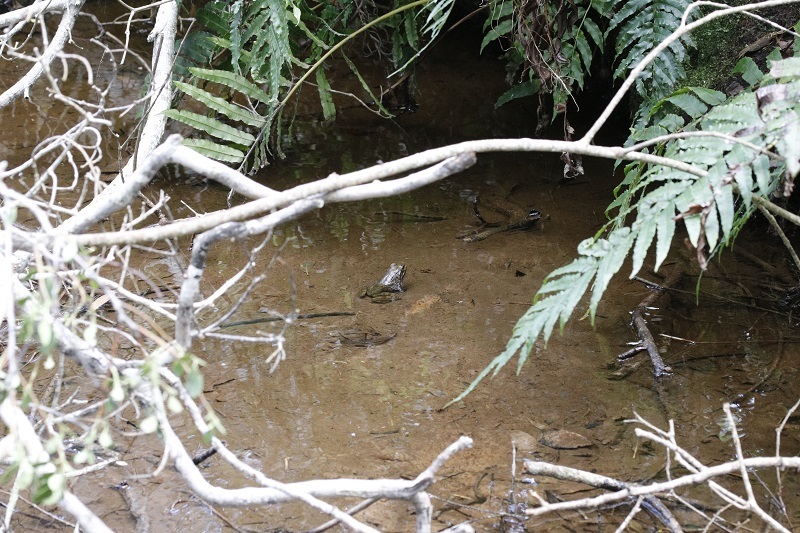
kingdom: Animalia
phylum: Chordata
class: Amphibia
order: Anura
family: Pyxicephalidae
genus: Amietia
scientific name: Amietia fuscigula
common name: Cape rana
